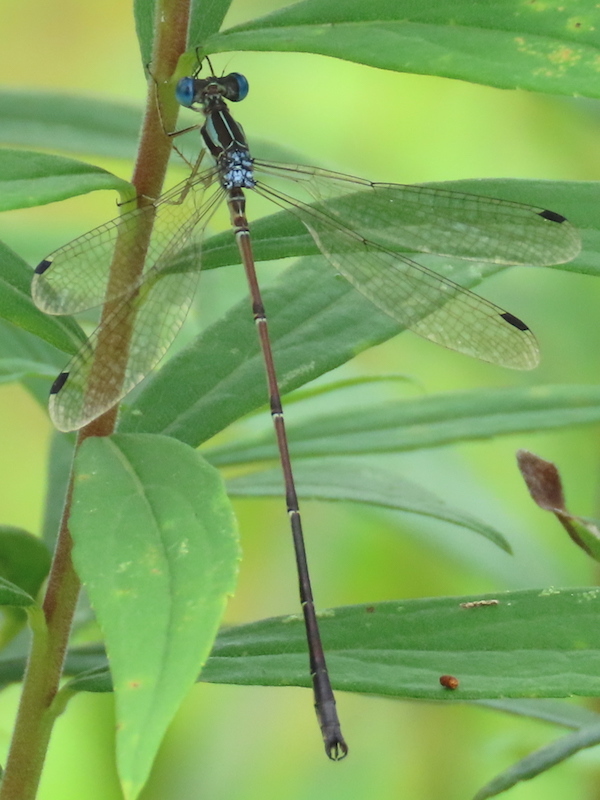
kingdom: Animalia
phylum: Arthropoda
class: Insecta
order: Odonata
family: Lestidae
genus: Lestes
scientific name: Lestes rectangularis
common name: Slender spreadwing
